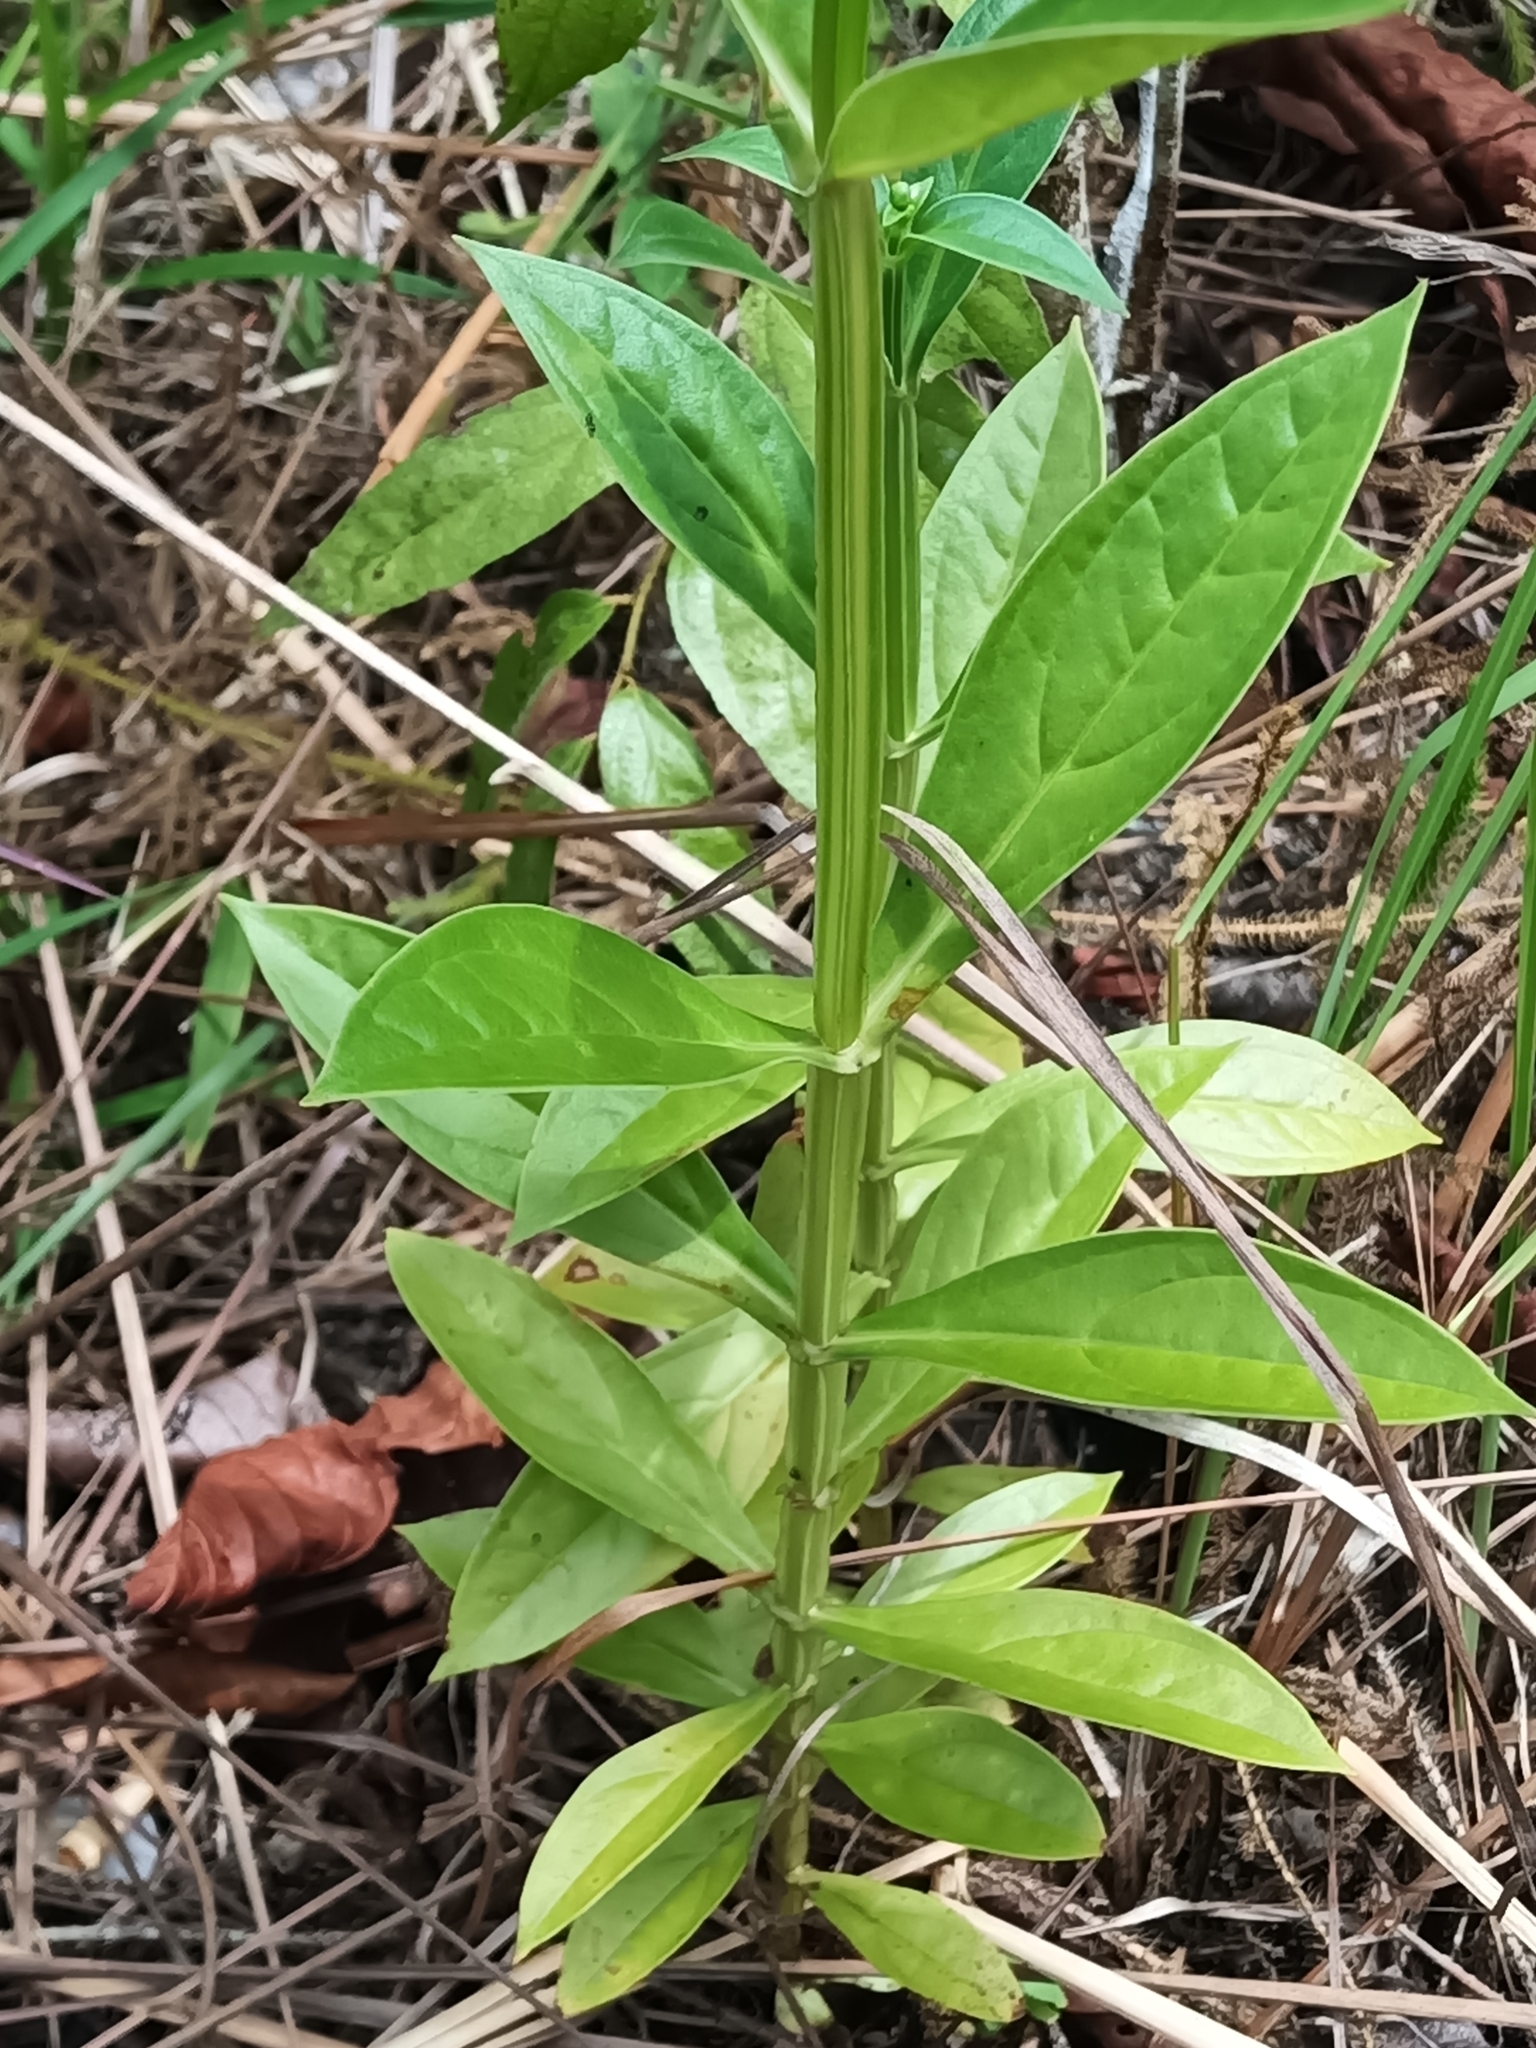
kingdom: Plantae
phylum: Tracheophyta
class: Magnoliopsida
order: Gentianales
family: Gentianaceae
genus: Chelonanthus
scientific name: Chelonanthus alatus
